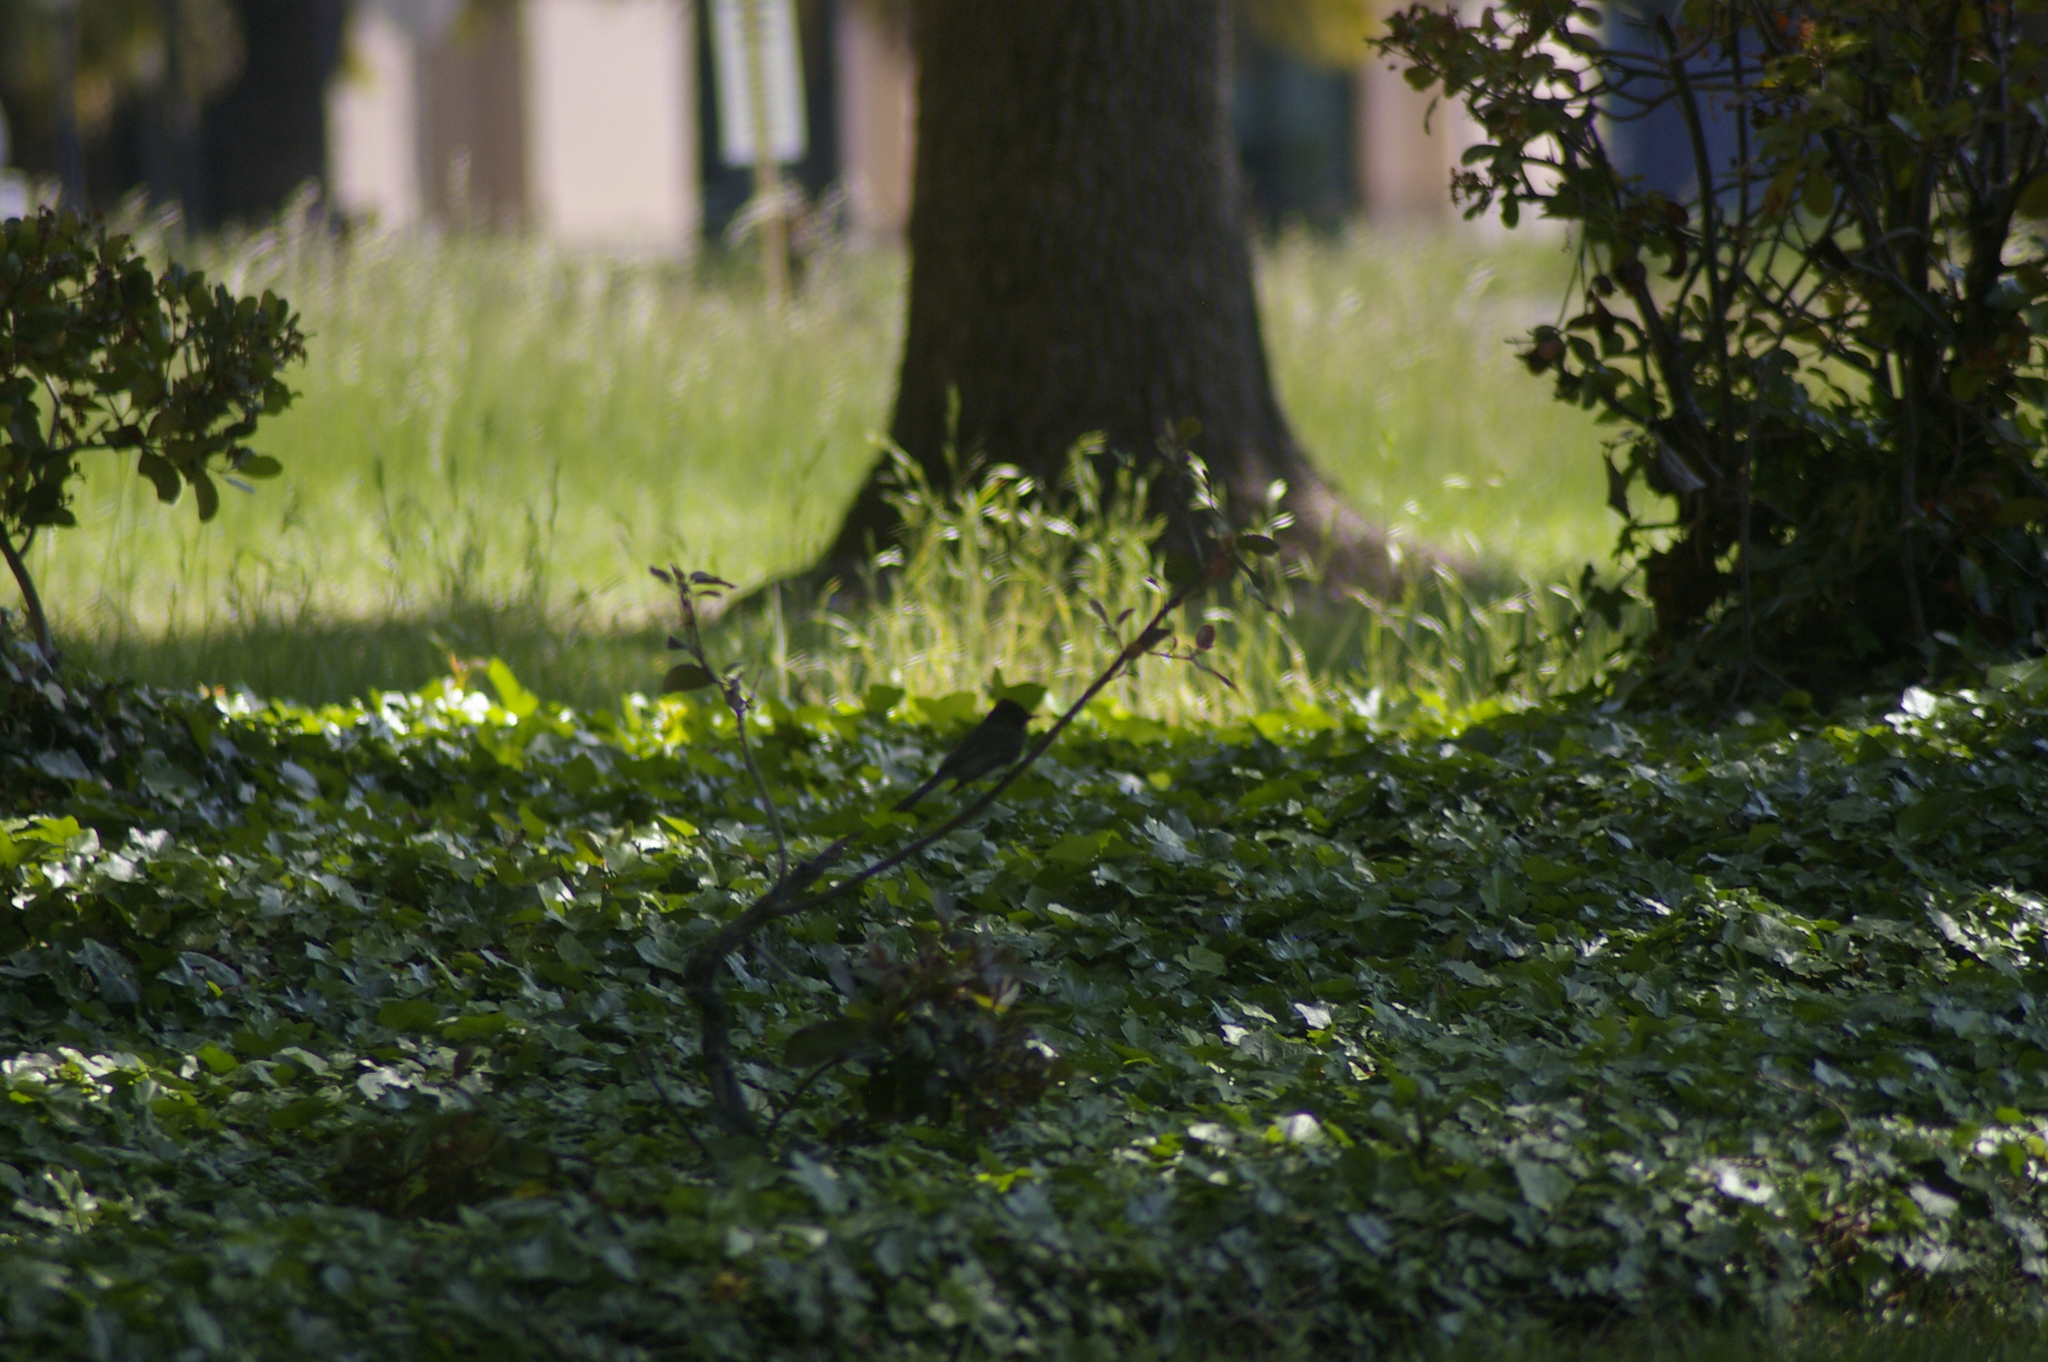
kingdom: Animalia
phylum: Chordata
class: Aves
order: Passeriformes
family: Tyrannidae
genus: Sayornis
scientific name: Sayornis nigricans
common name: Black phoebe
